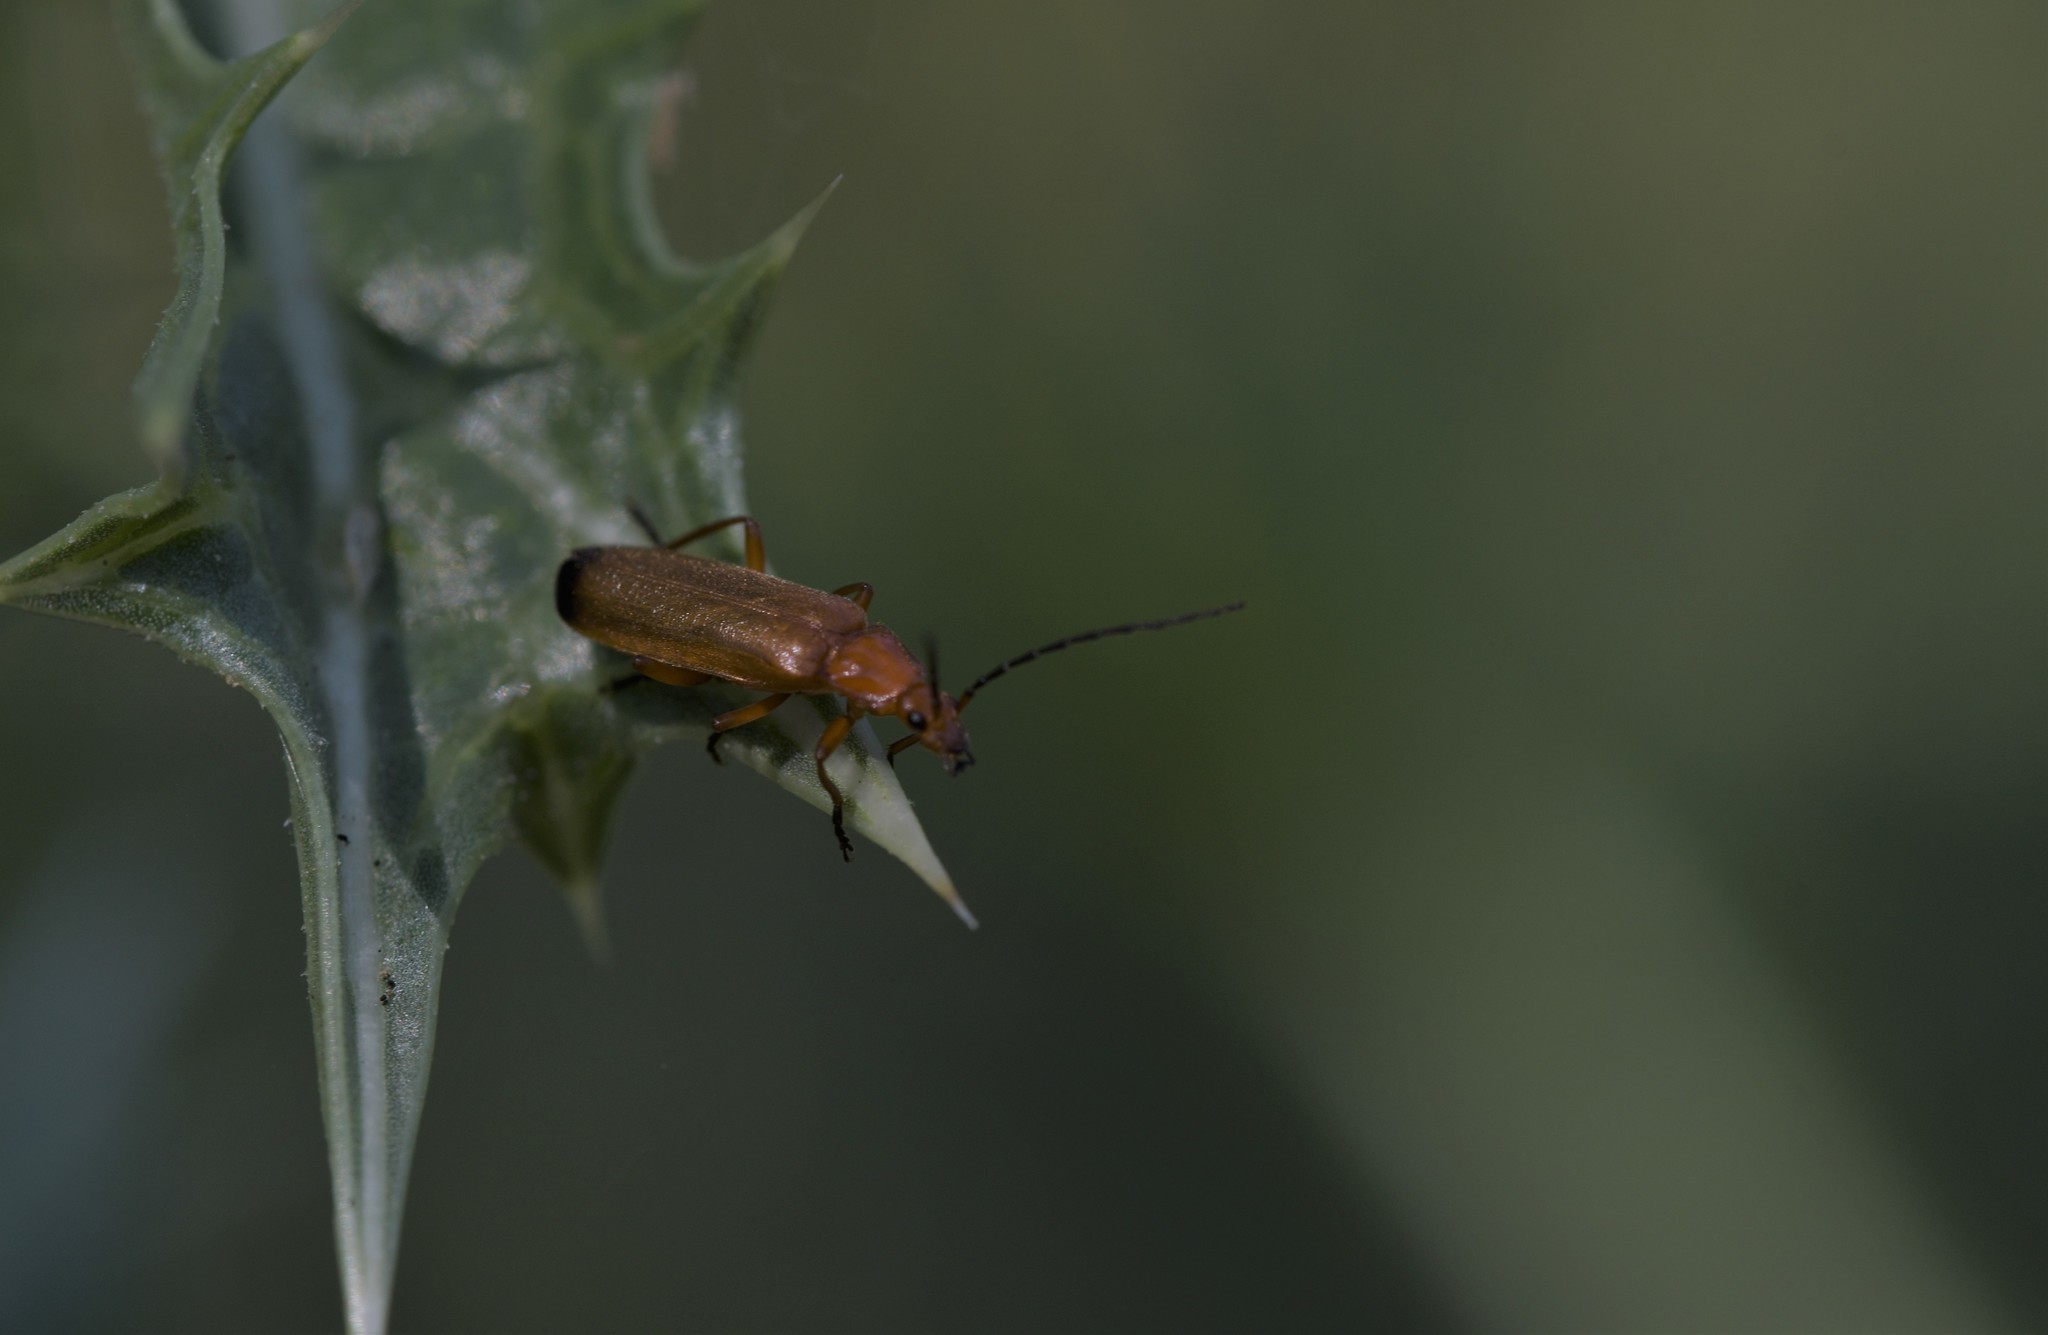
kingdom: Animalia
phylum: Arthropoda
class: Insecta
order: Coleoptera
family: Cantharidae
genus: Rhagonycha
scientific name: Rhagonycha fulva
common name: Common red soldier beetle
